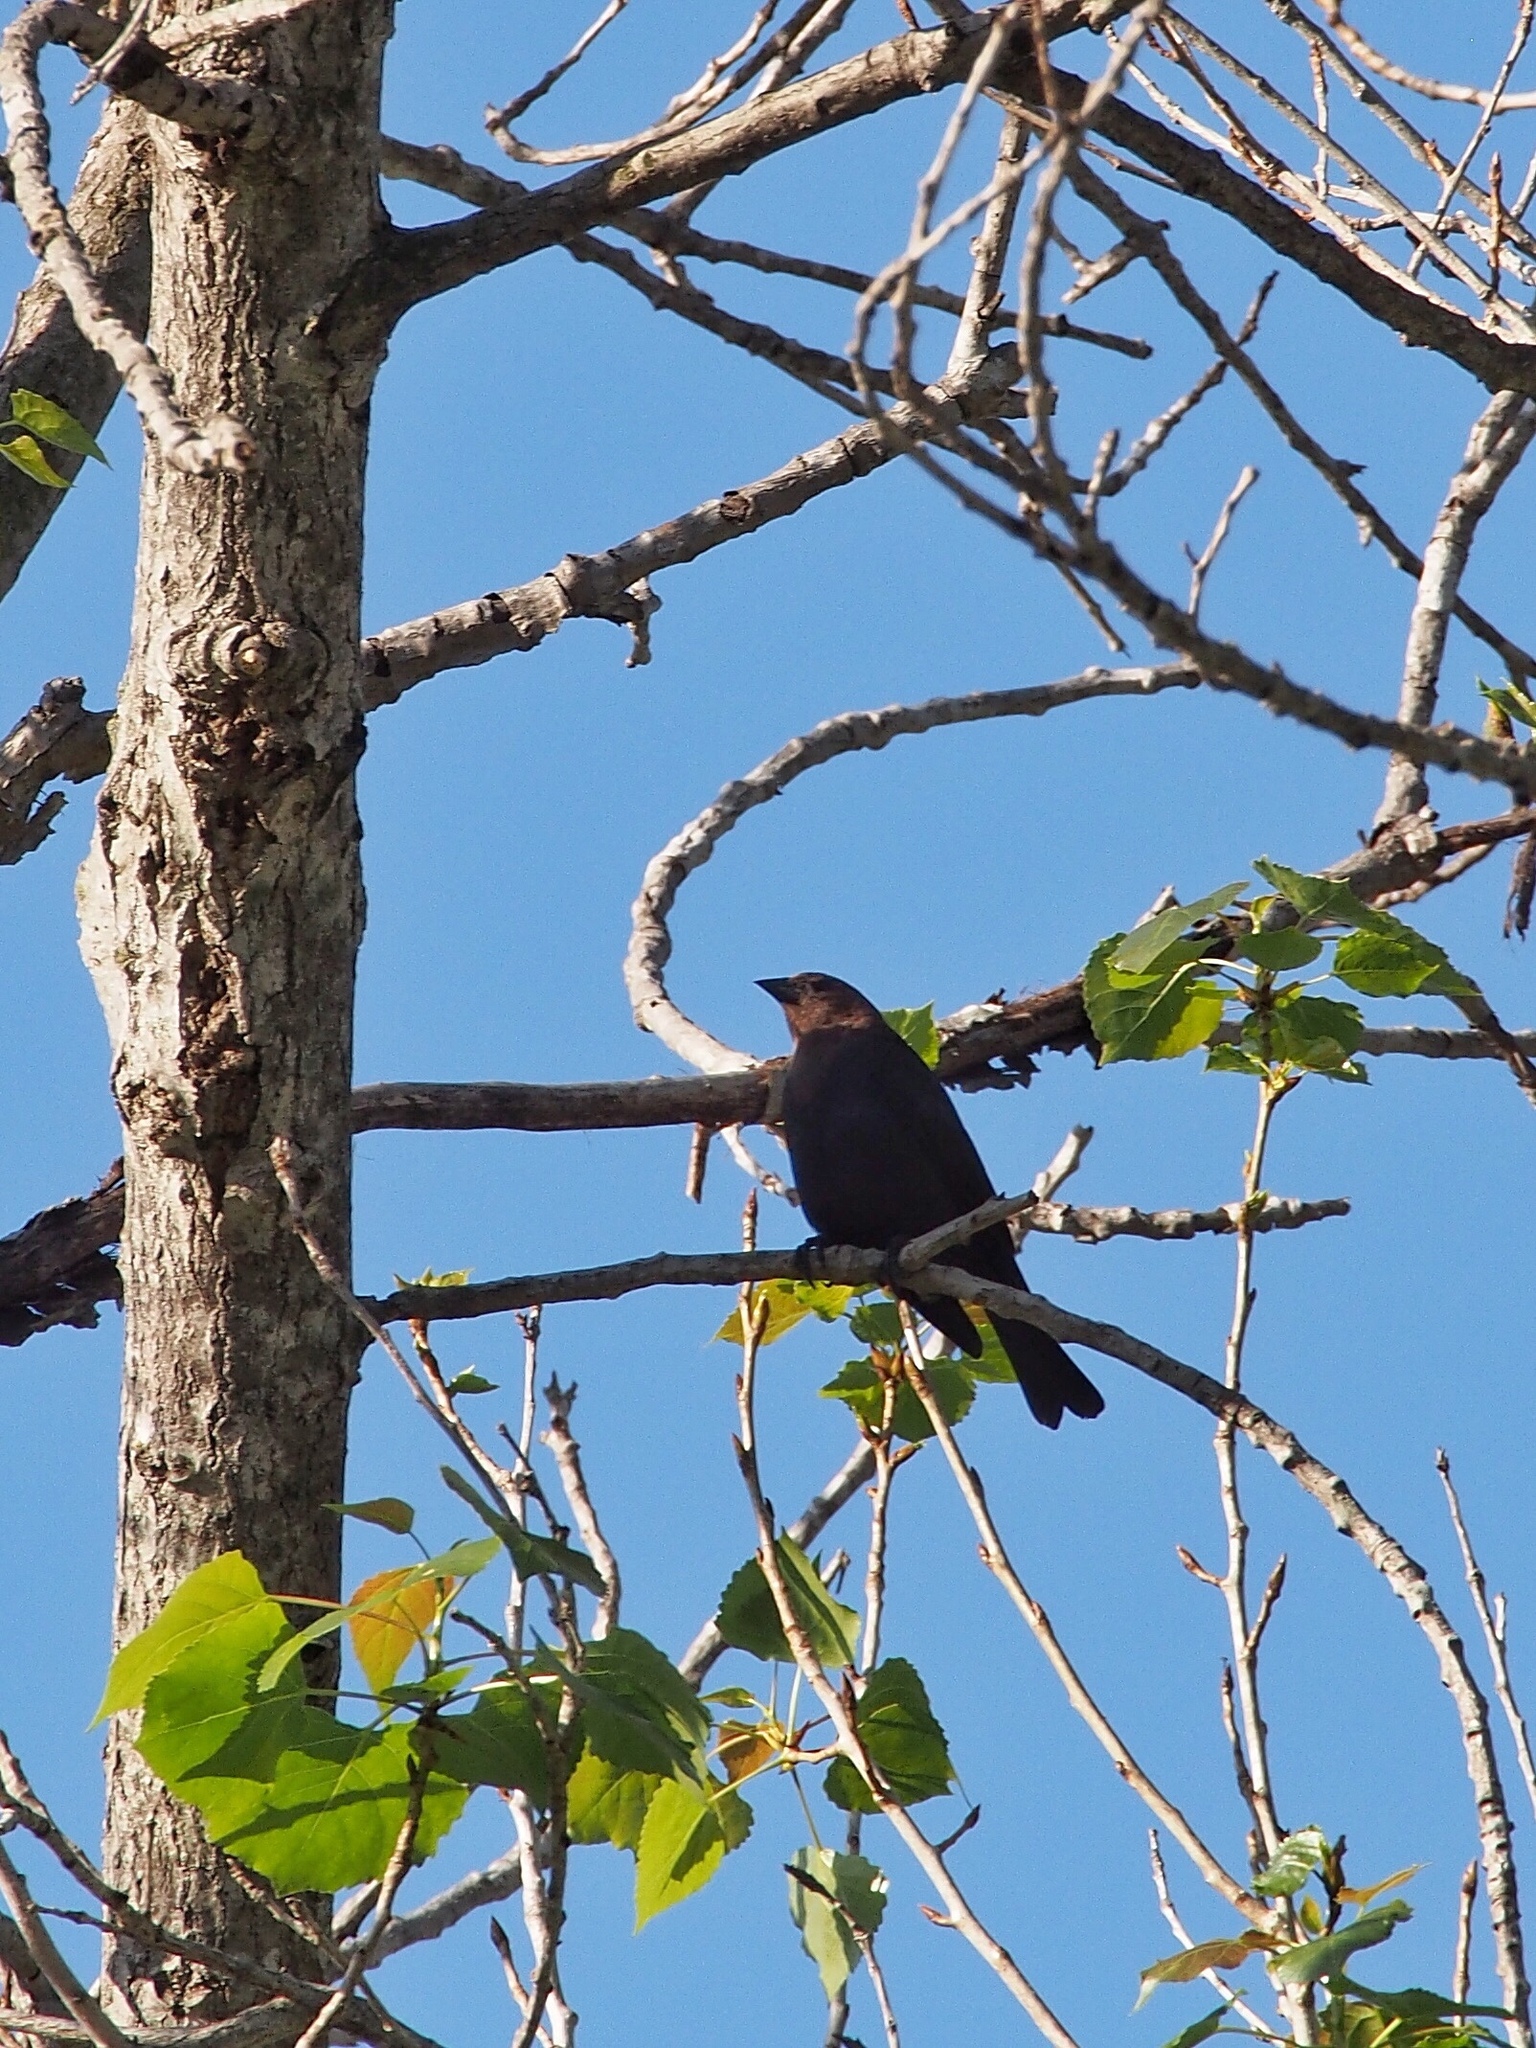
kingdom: Animalia
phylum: Chordata
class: Aves
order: Passeriformes
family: Icteridae
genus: Molothrus
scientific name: Molothrus ater
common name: Brown-headed cowbird
